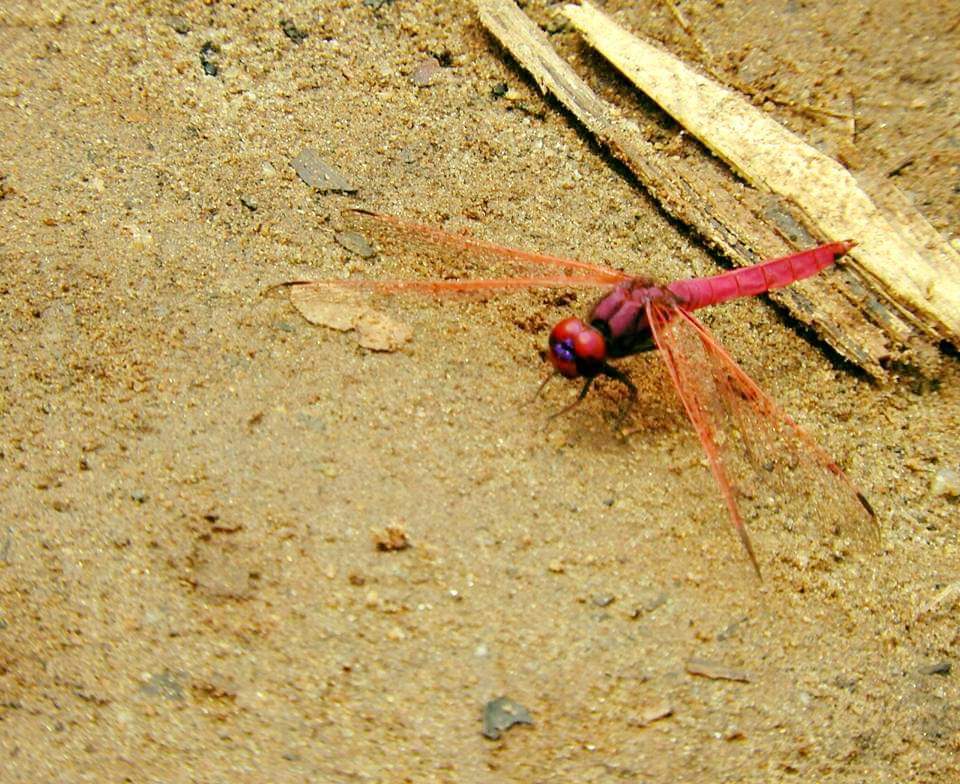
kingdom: Animalia
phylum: Arthropoda
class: Insecta
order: Odonata
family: Libellulidae
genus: Trithemis
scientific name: Trithemis aurora
